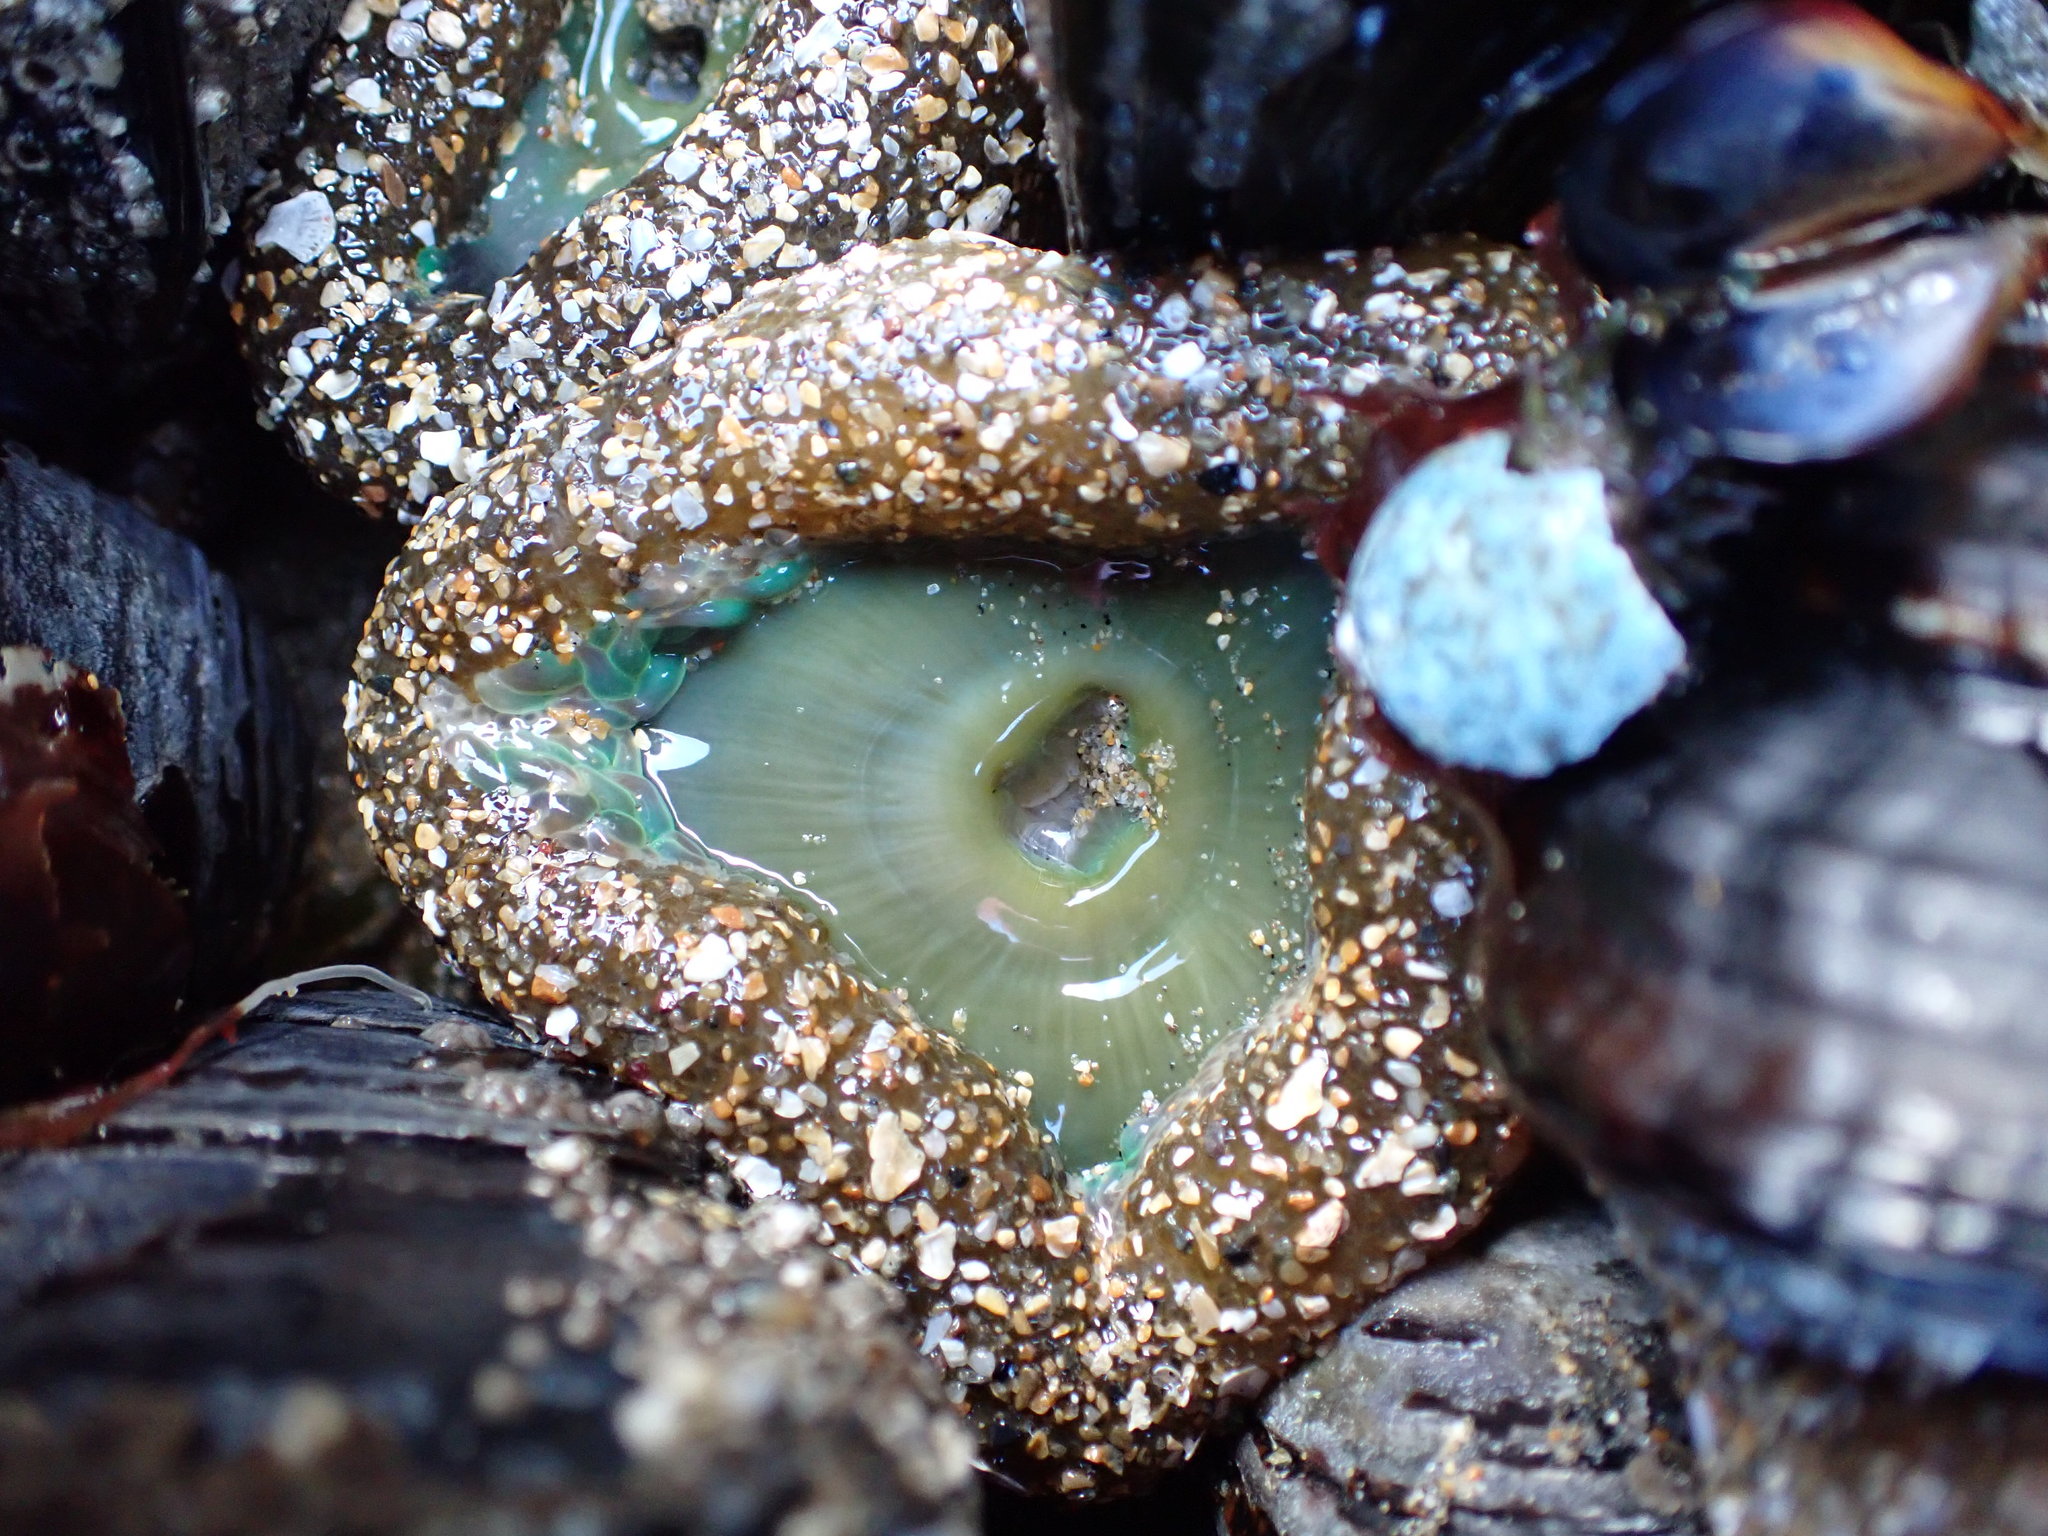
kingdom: Animalia
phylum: Cnidaria
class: Anthozoa
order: Actiniaria
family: Actiniidae
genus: Anthopleura
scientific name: Anthopleura xanthogrammica
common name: Giant green anemone
